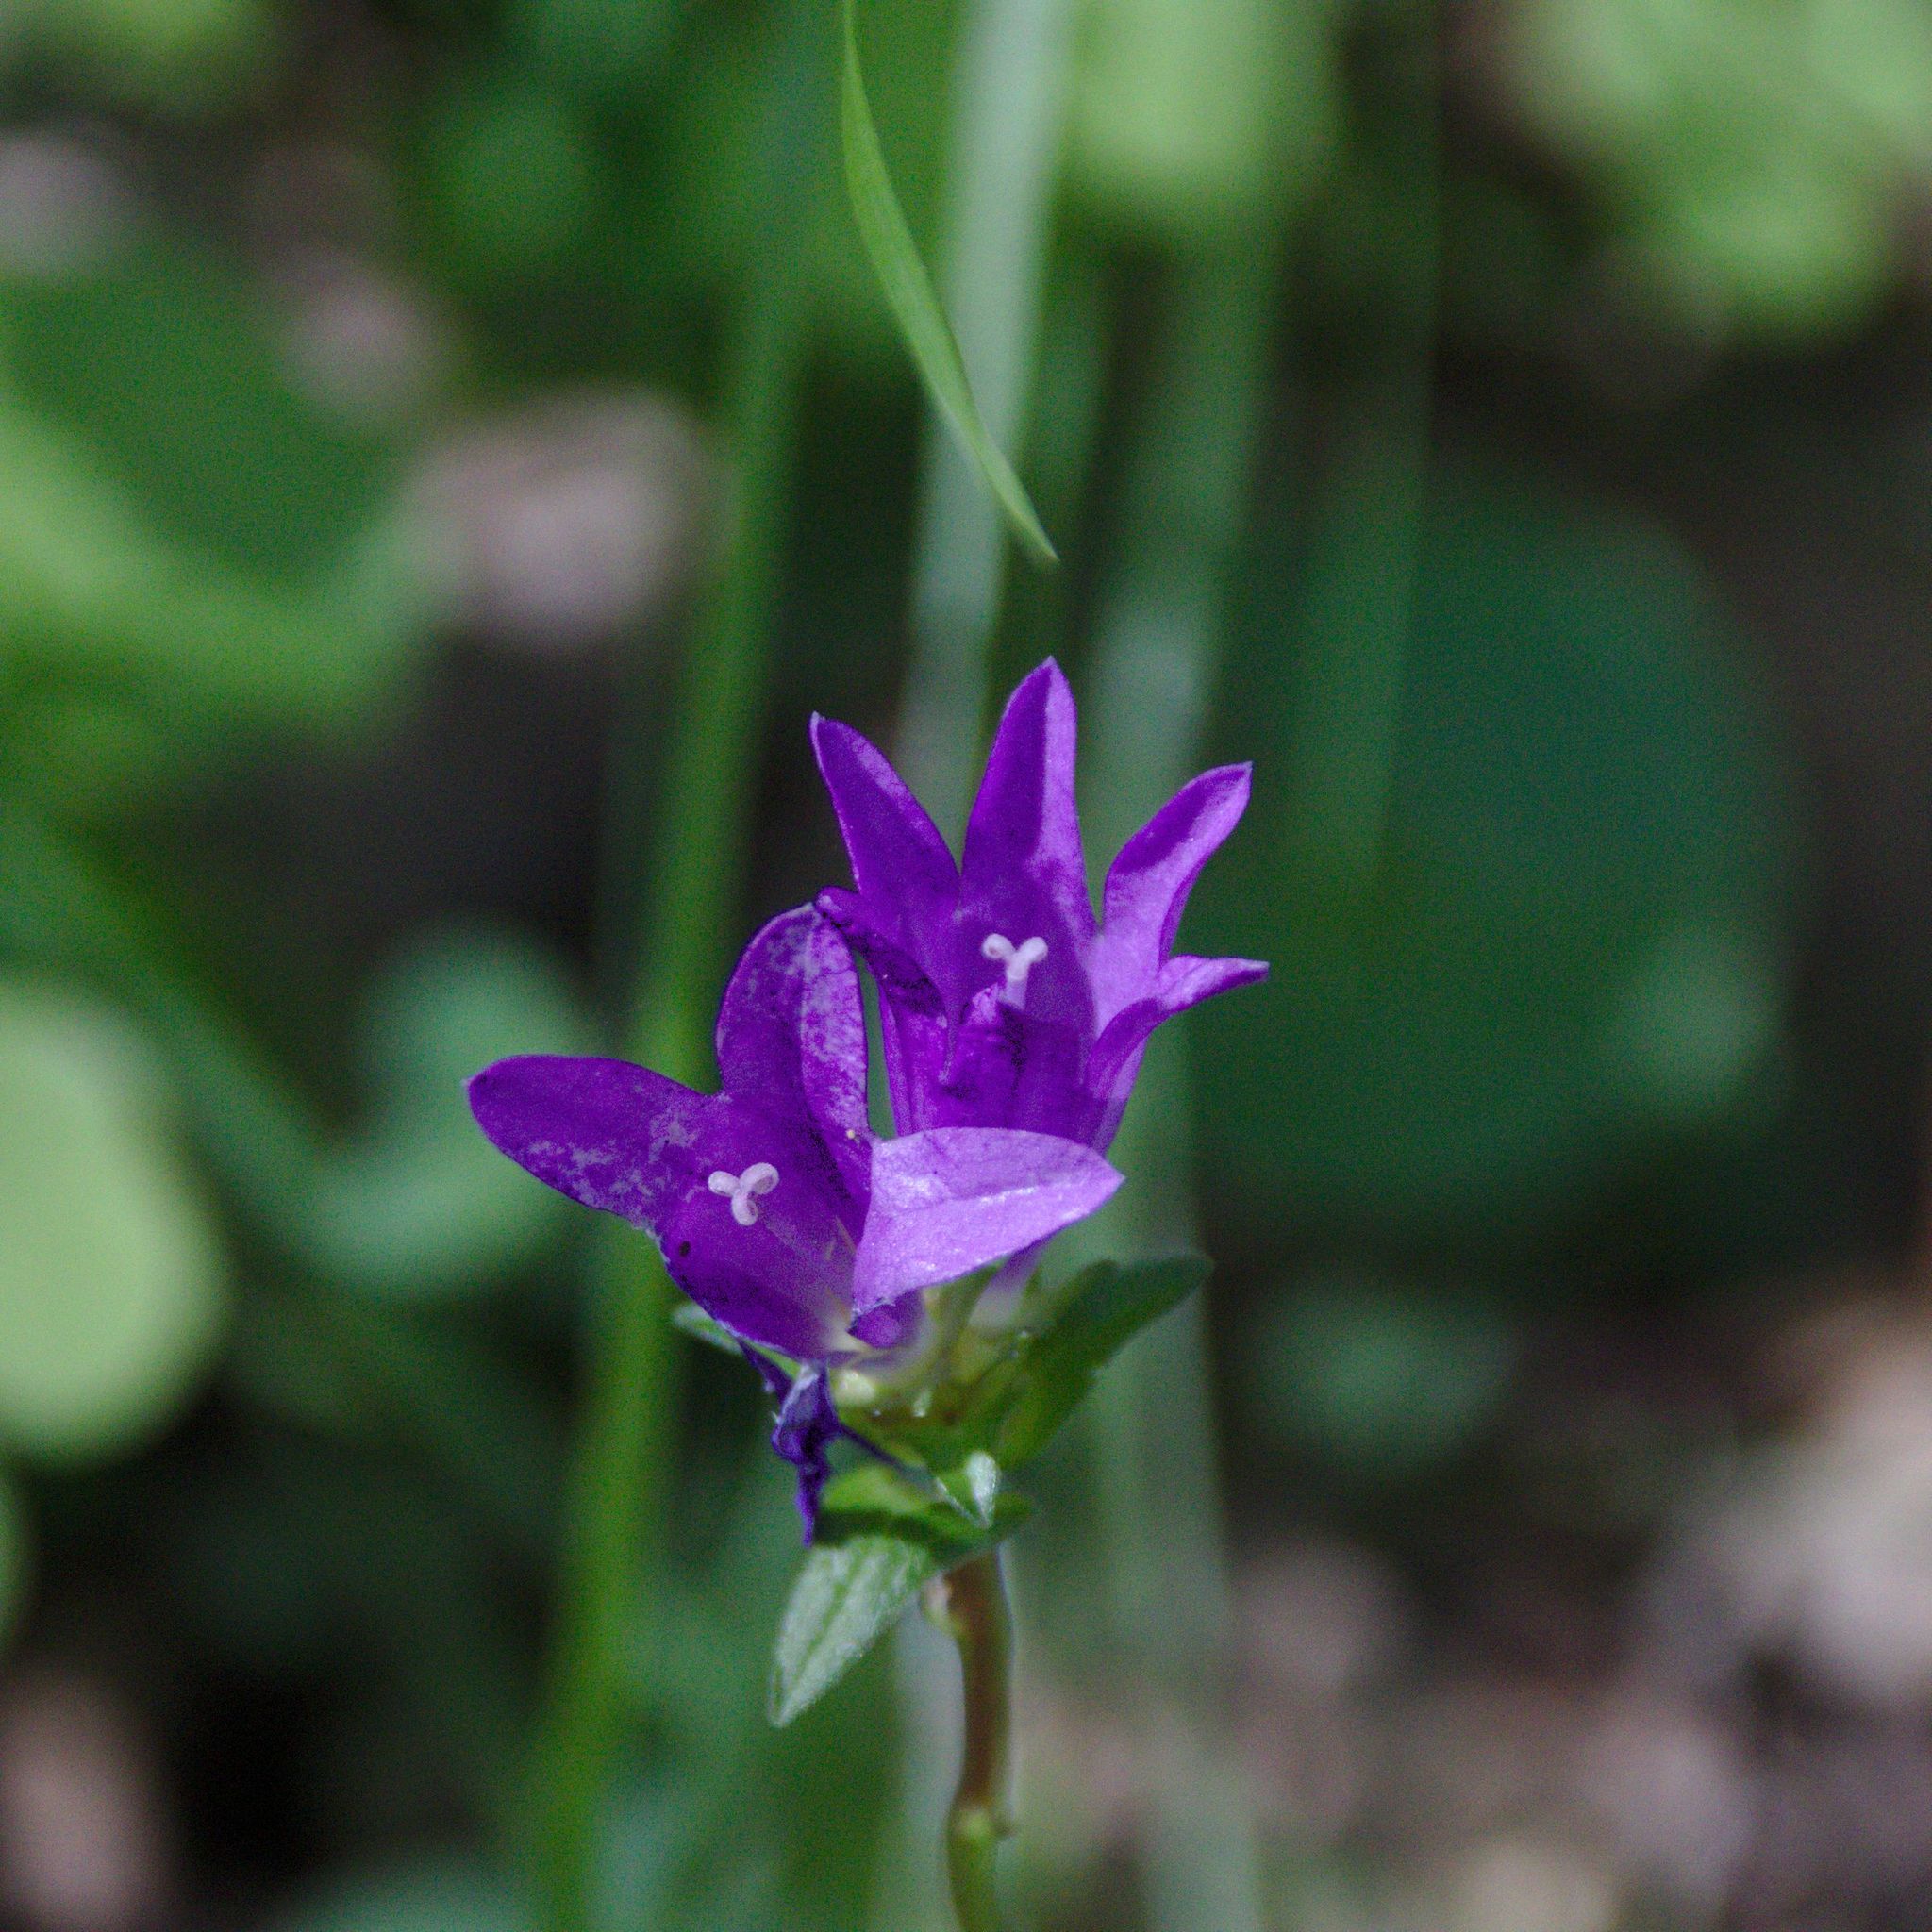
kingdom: Plantae
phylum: Tracheophyta
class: Magnoliopsida
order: Asterales
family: Campanulaceae
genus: Campanula
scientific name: Campanula glomerata
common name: Clustered bellflower
